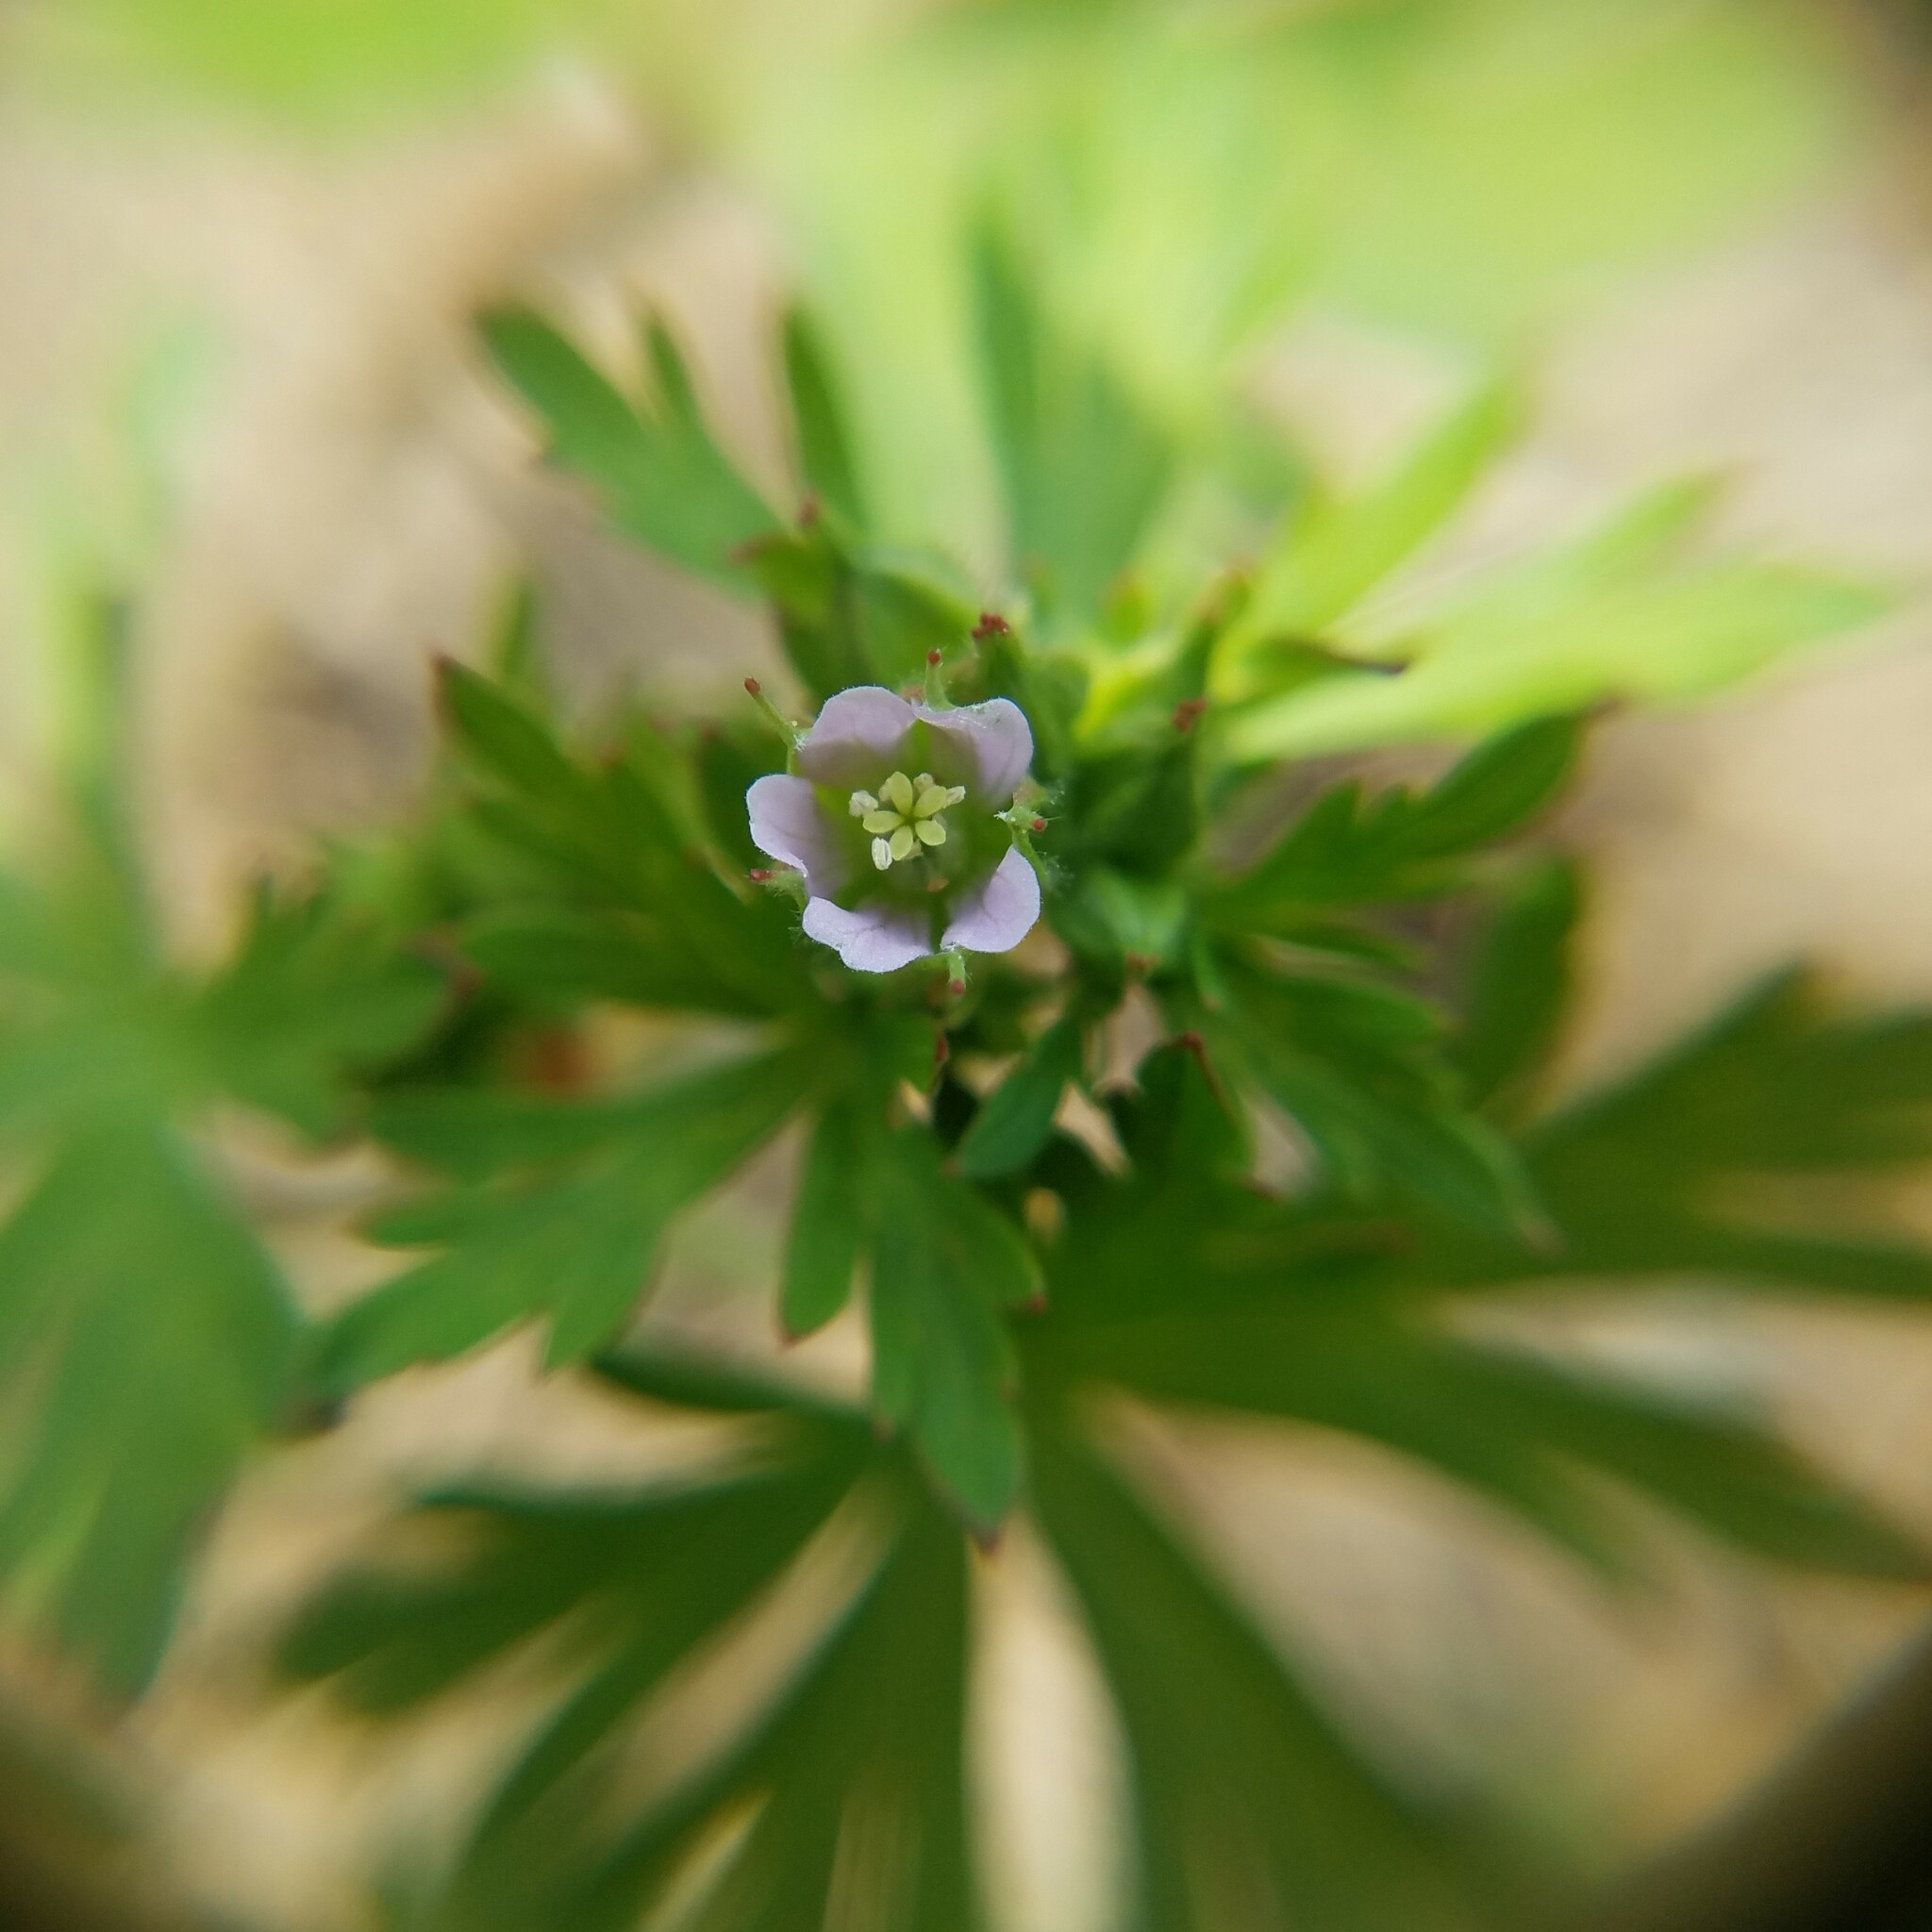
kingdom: Plantae
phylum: Tracheophyta
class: Magnoliopsida
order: Geraniales
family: Geraniaceae
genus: Geranium
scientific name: Geranium carolinianum
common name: Carolina crane's-bill
